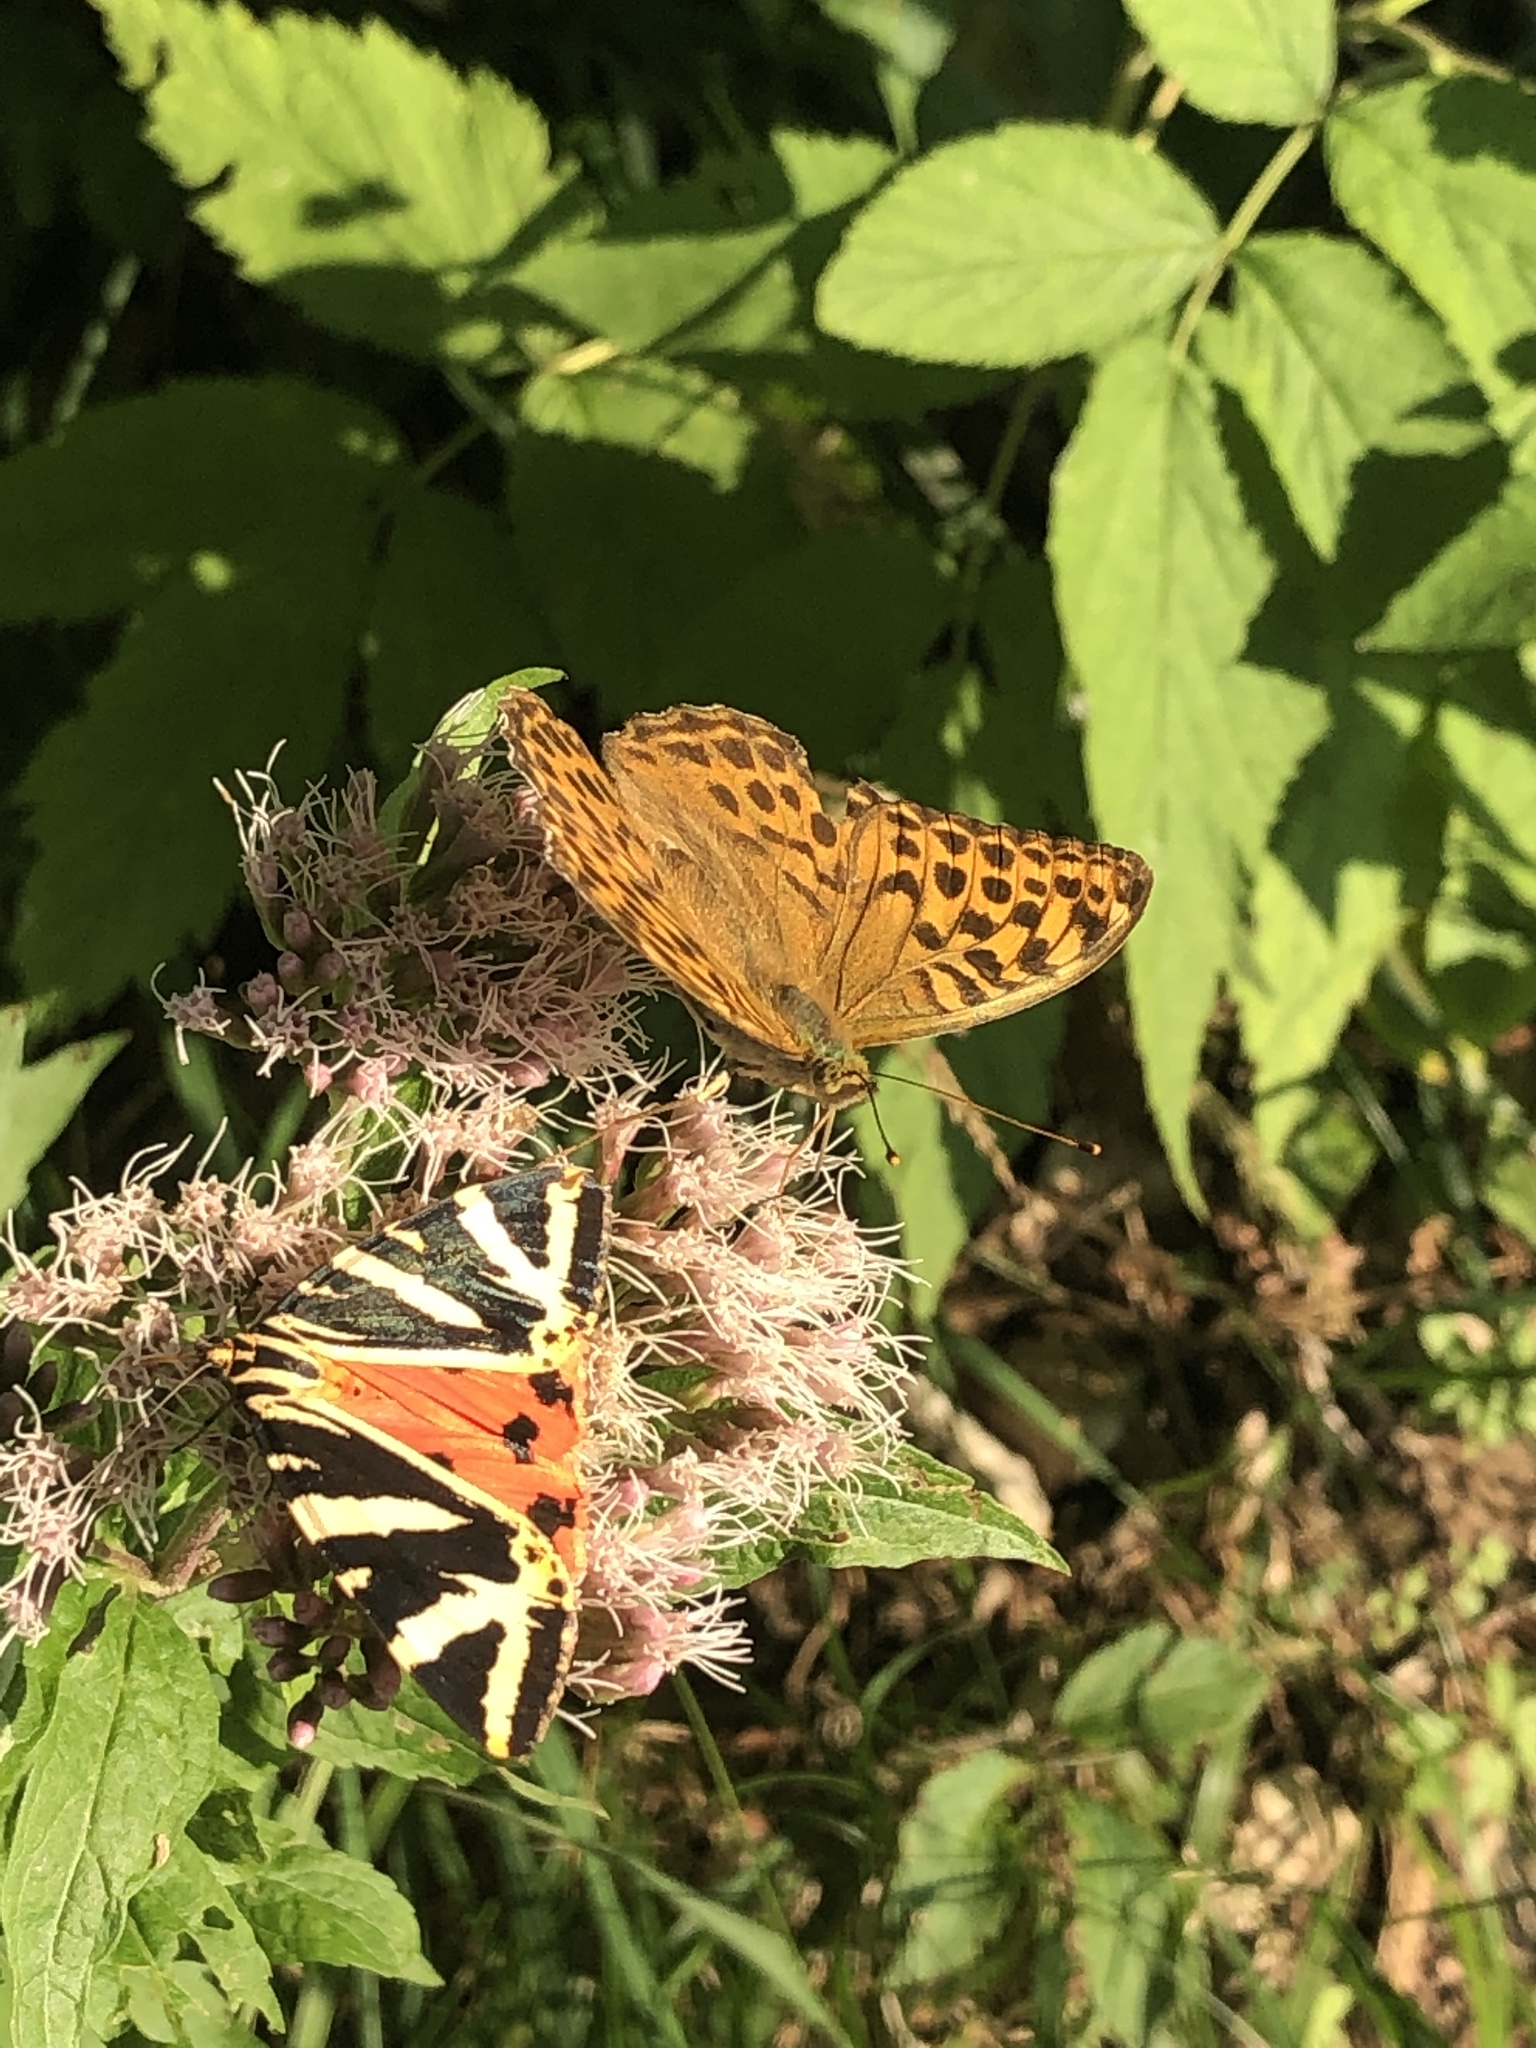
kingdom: Animalia
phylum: Arthropoda
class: Insecta
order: Lepidoptera
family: Nymphalidae
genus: Argynnis
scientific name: Argynnis paphia
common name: Silver-washed fritillary
